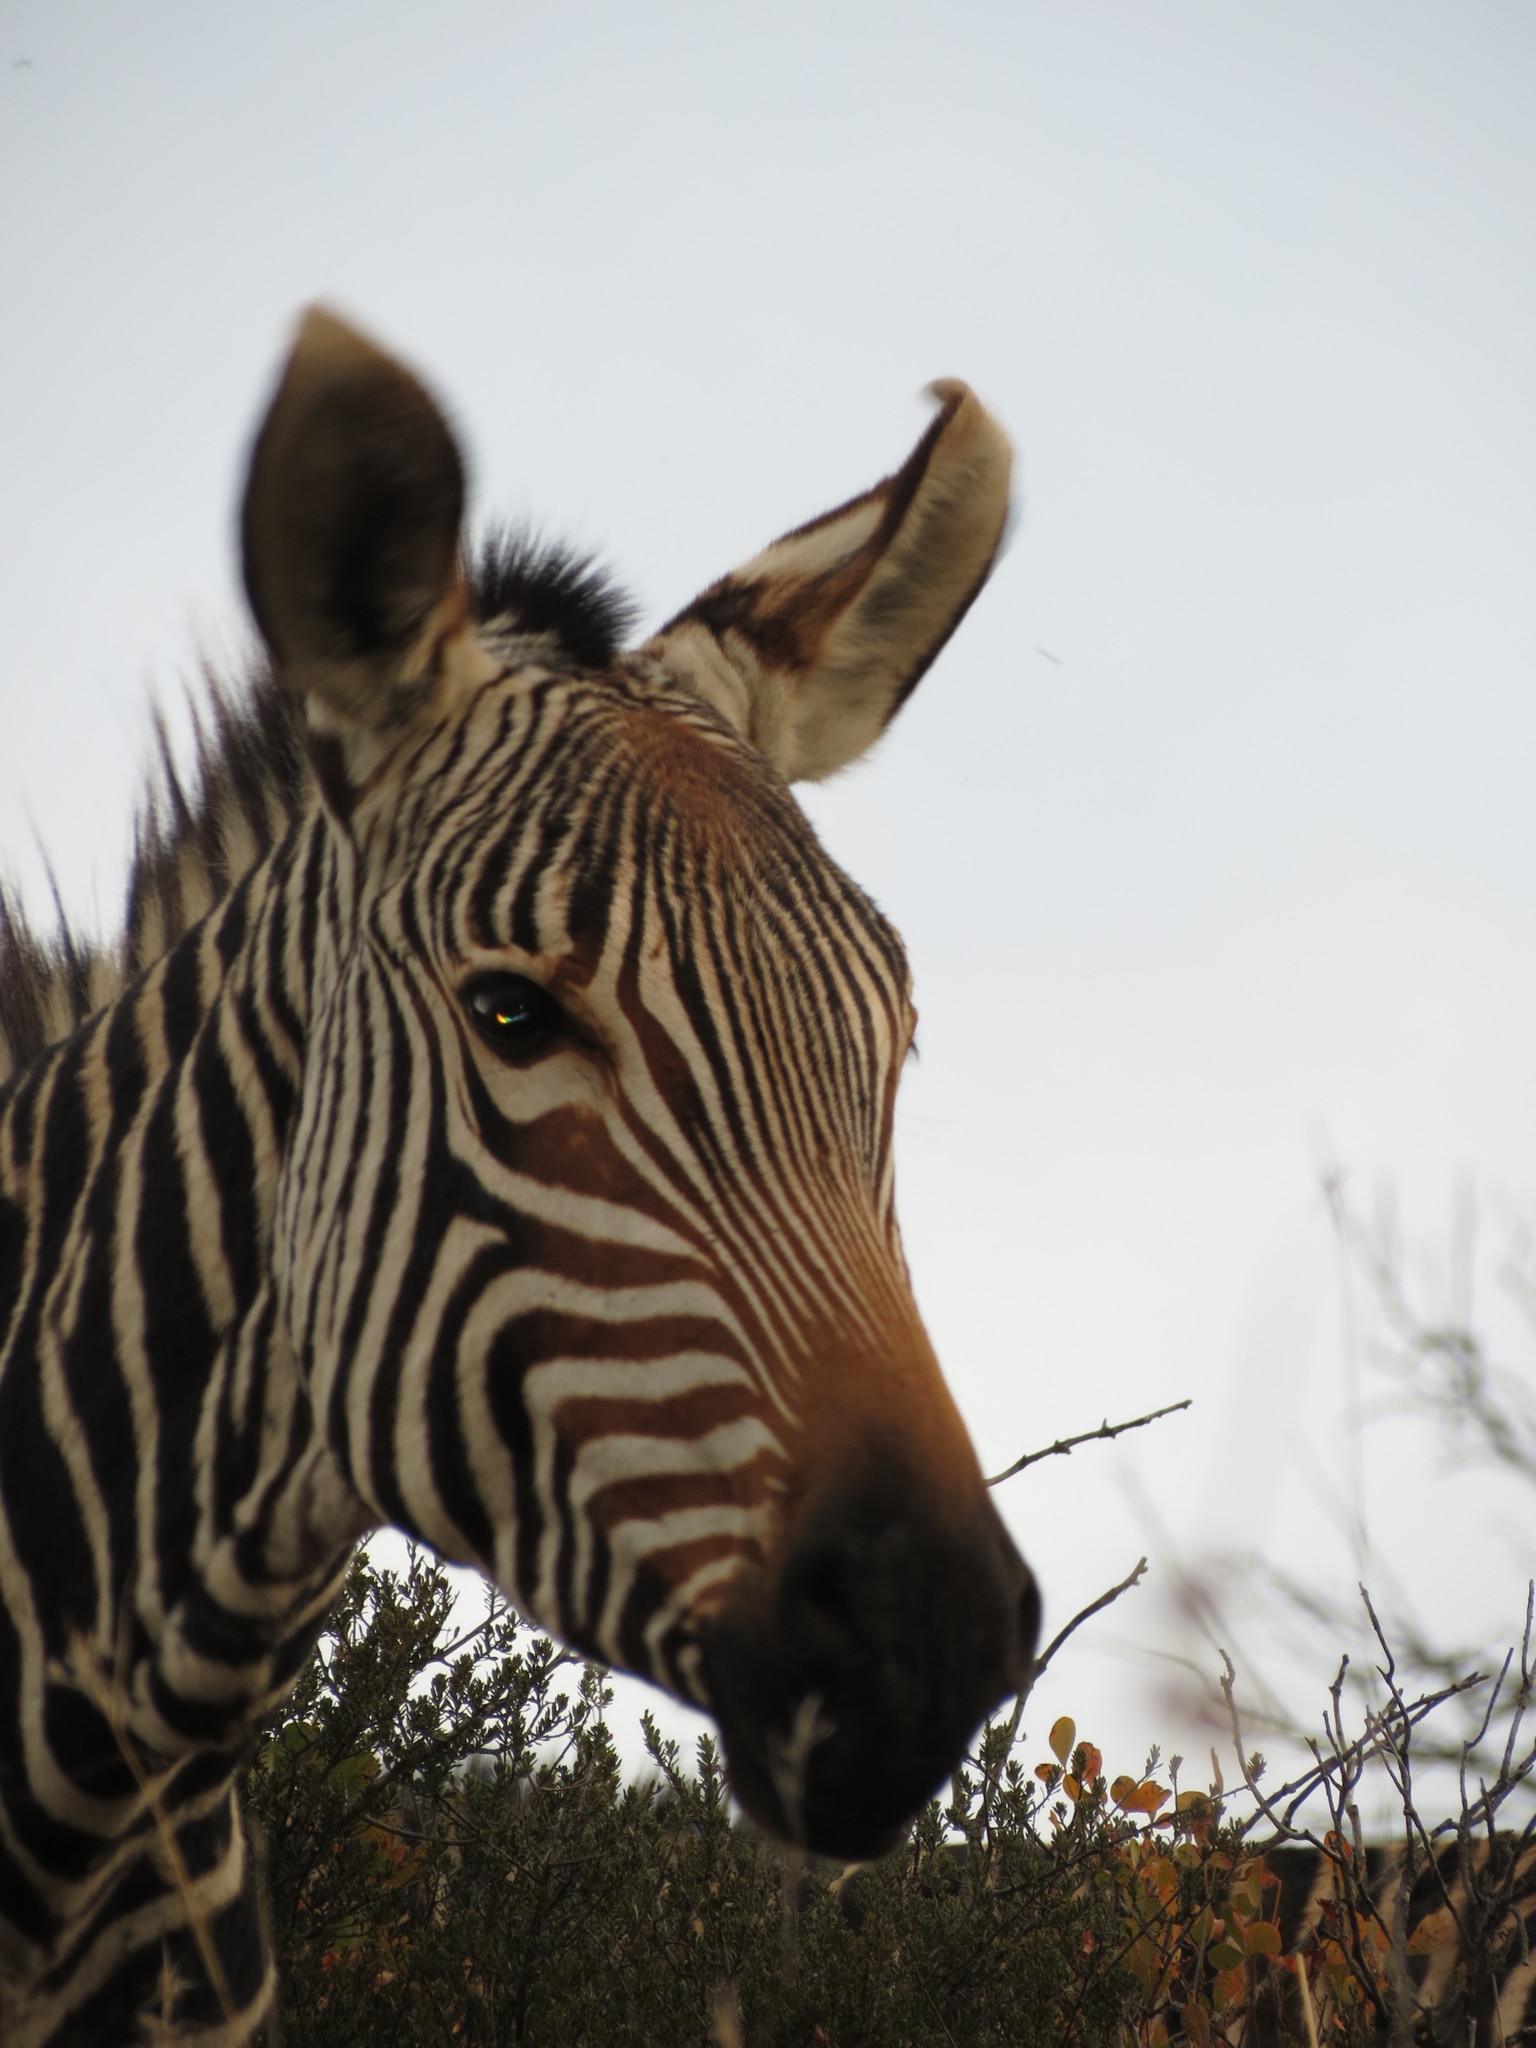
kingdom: Animalia
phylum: Chordata
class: Mammalia
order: Perissodactyla
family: Equidae
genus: Equus
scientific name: Equus zebra
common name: Mountain zebra
